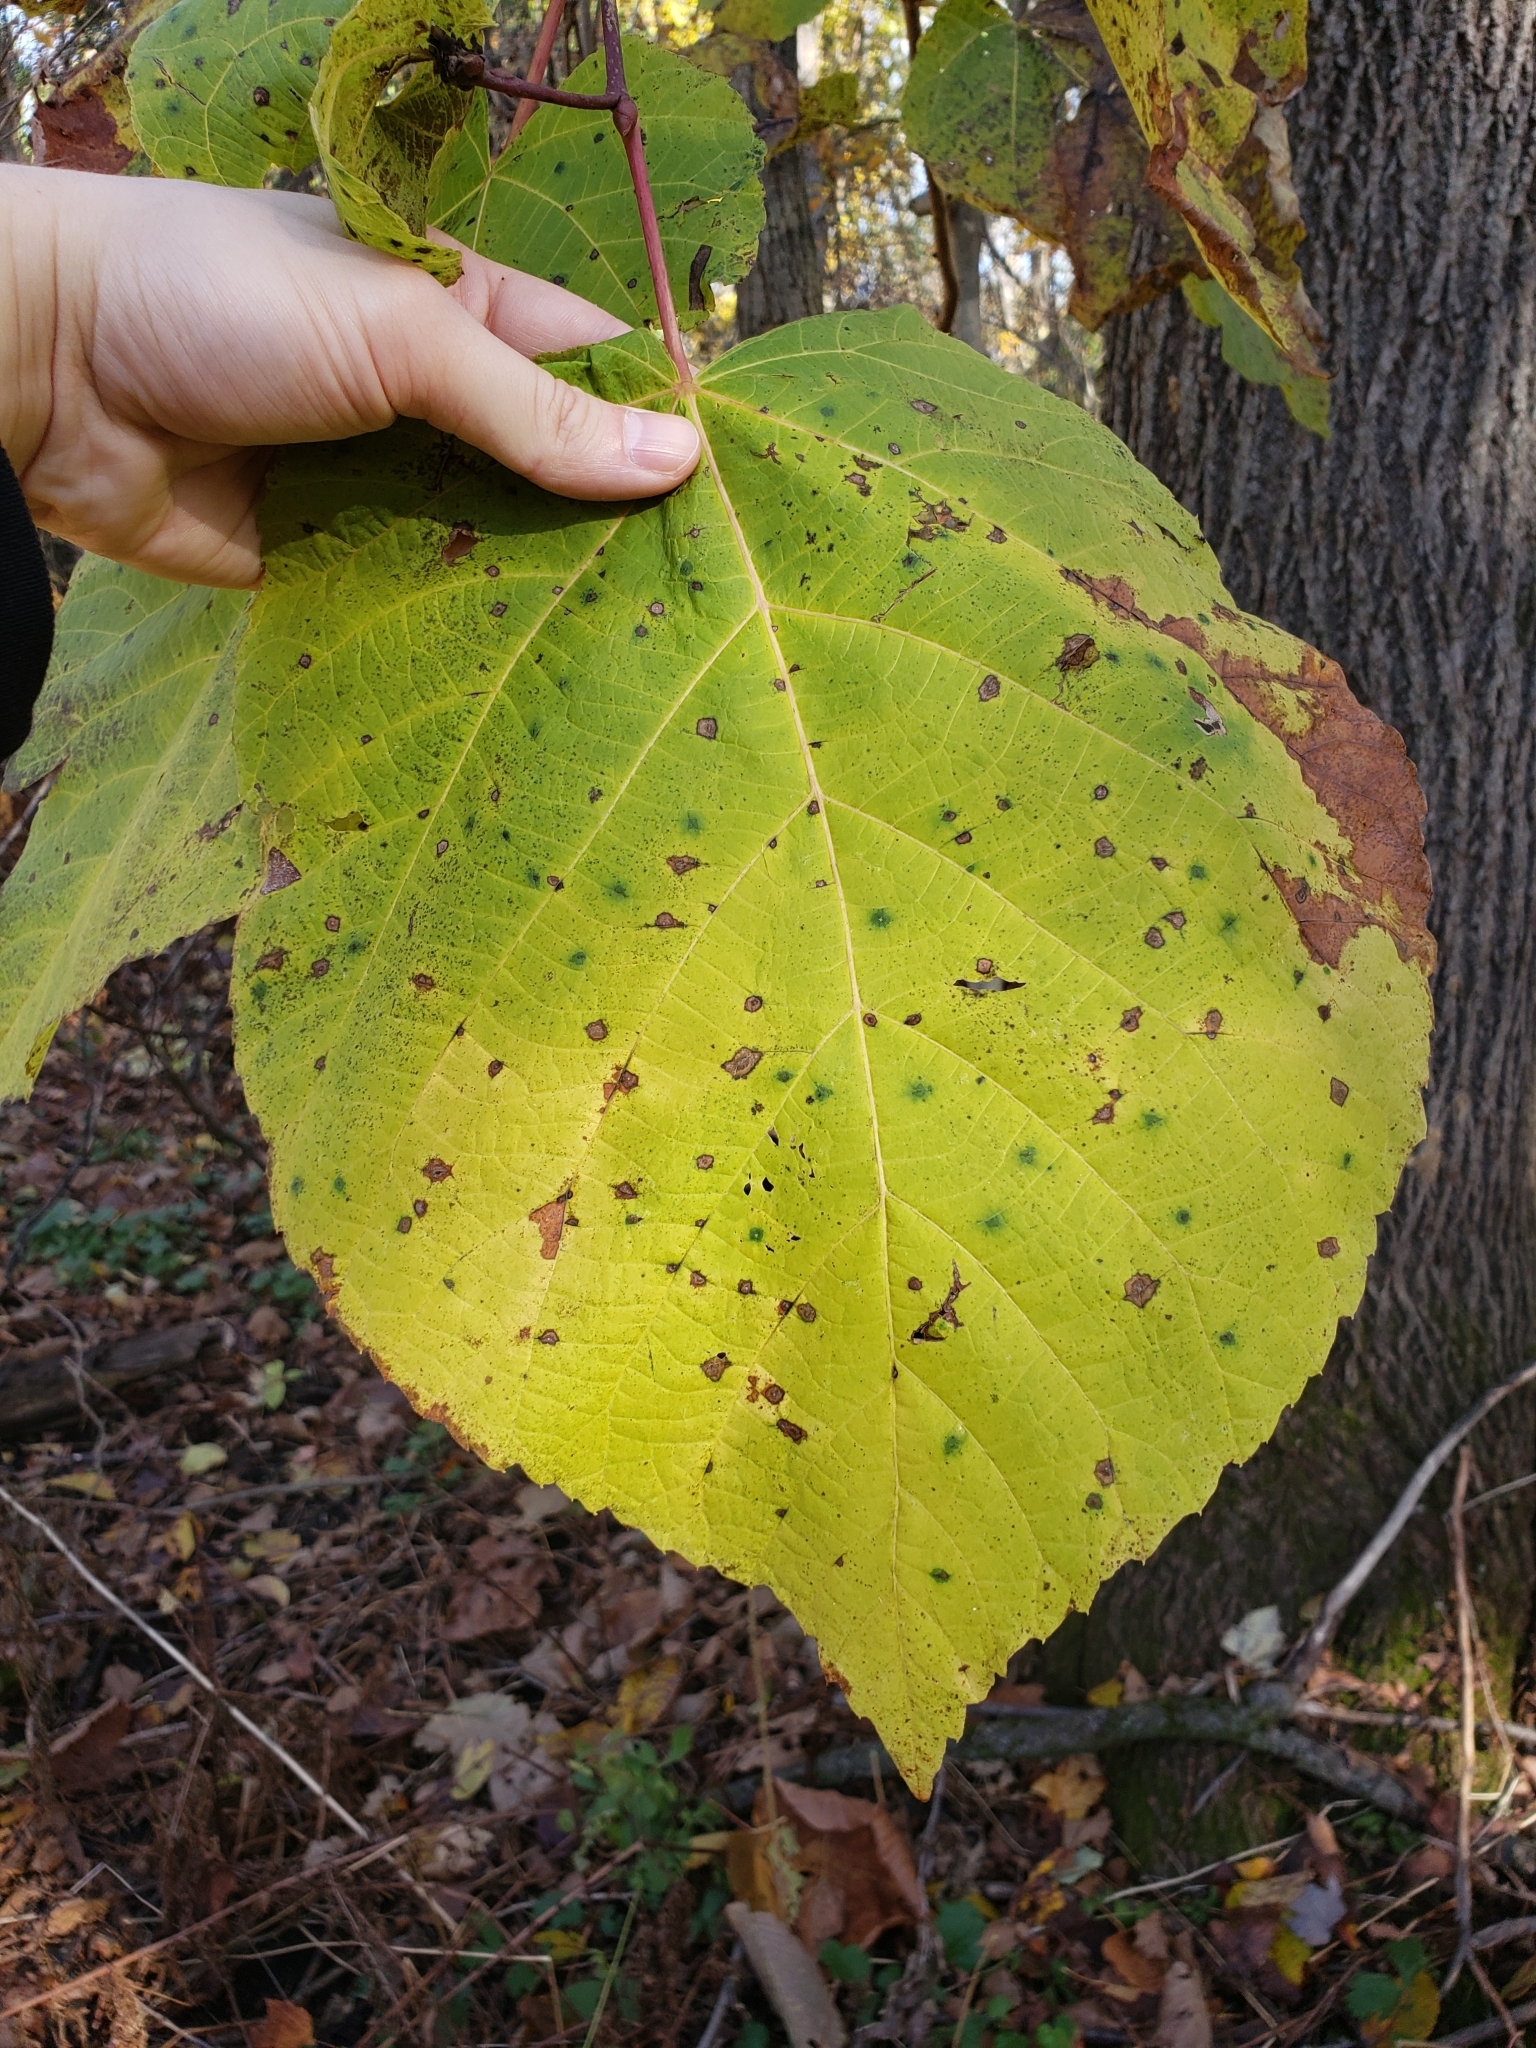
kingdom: Plantae
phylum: Tracheophyta
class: Magnoliopsida
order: Malvales
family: Malvaceae
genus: Tilia
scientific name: Tilia americana
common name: Basswood
